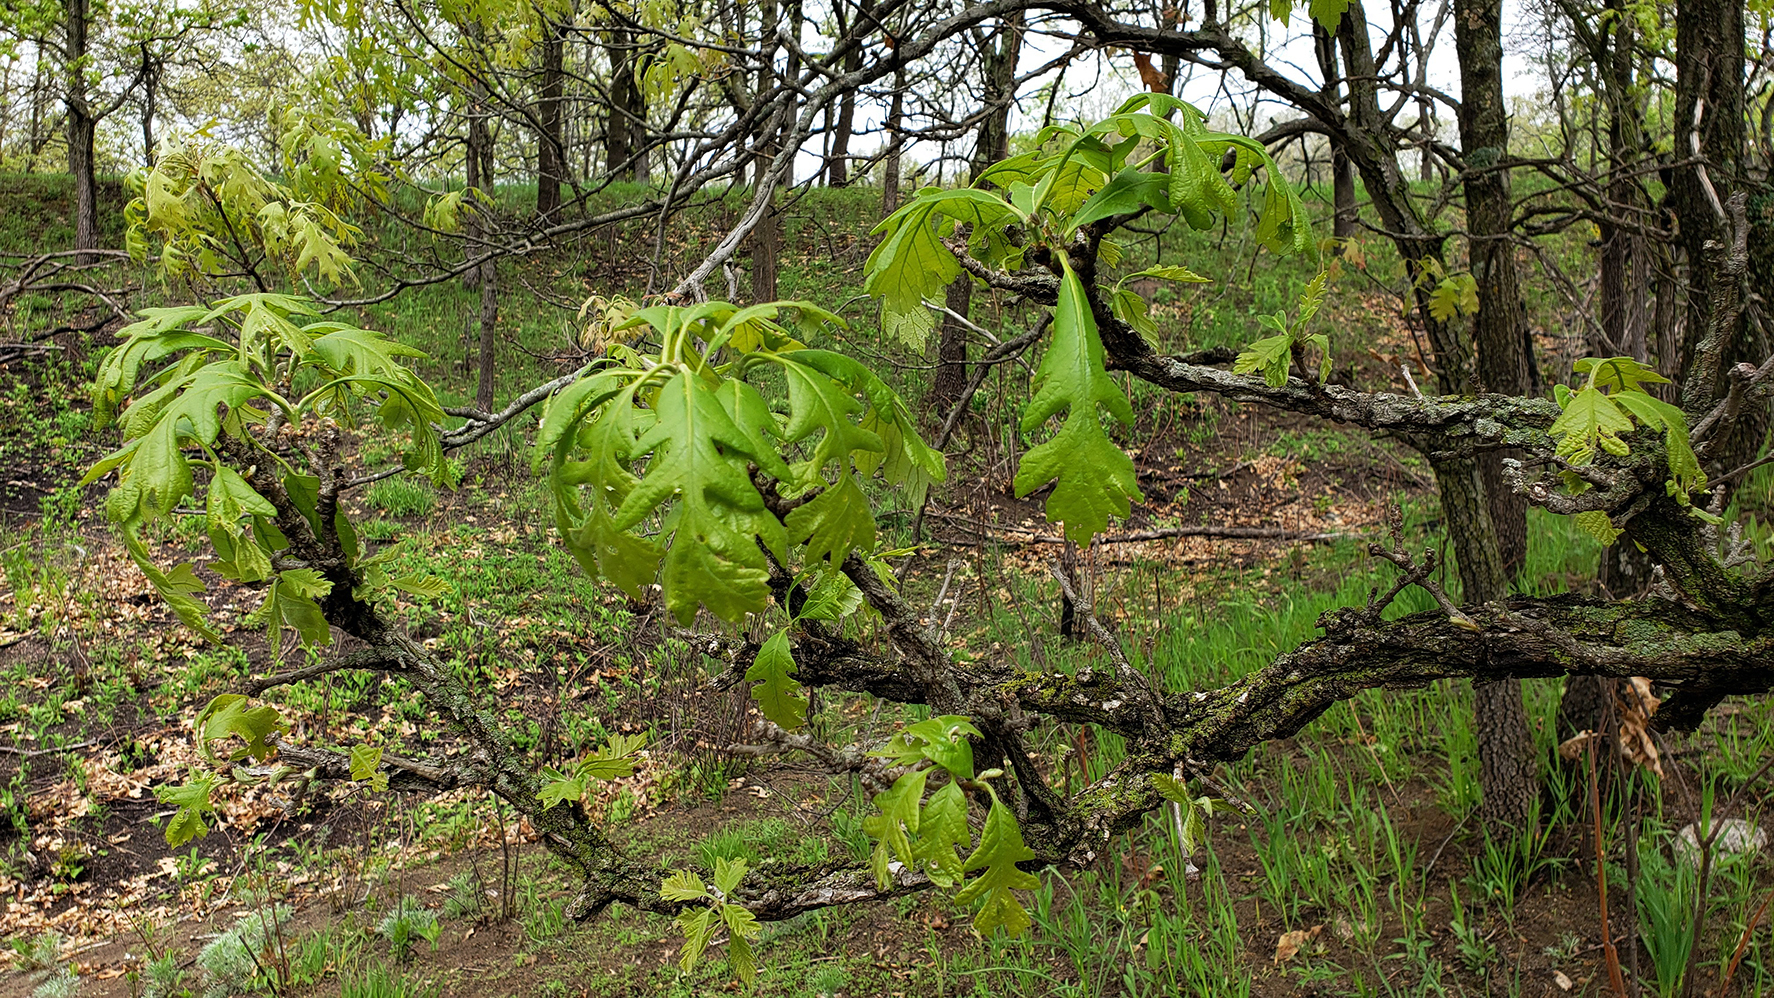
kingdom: Plantae
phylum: Tracheophyta
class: Magnoliopsida
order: Fagales
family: Fagaceae
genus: Quercus
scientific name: Quercus macrocarpa
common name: Bur oak
